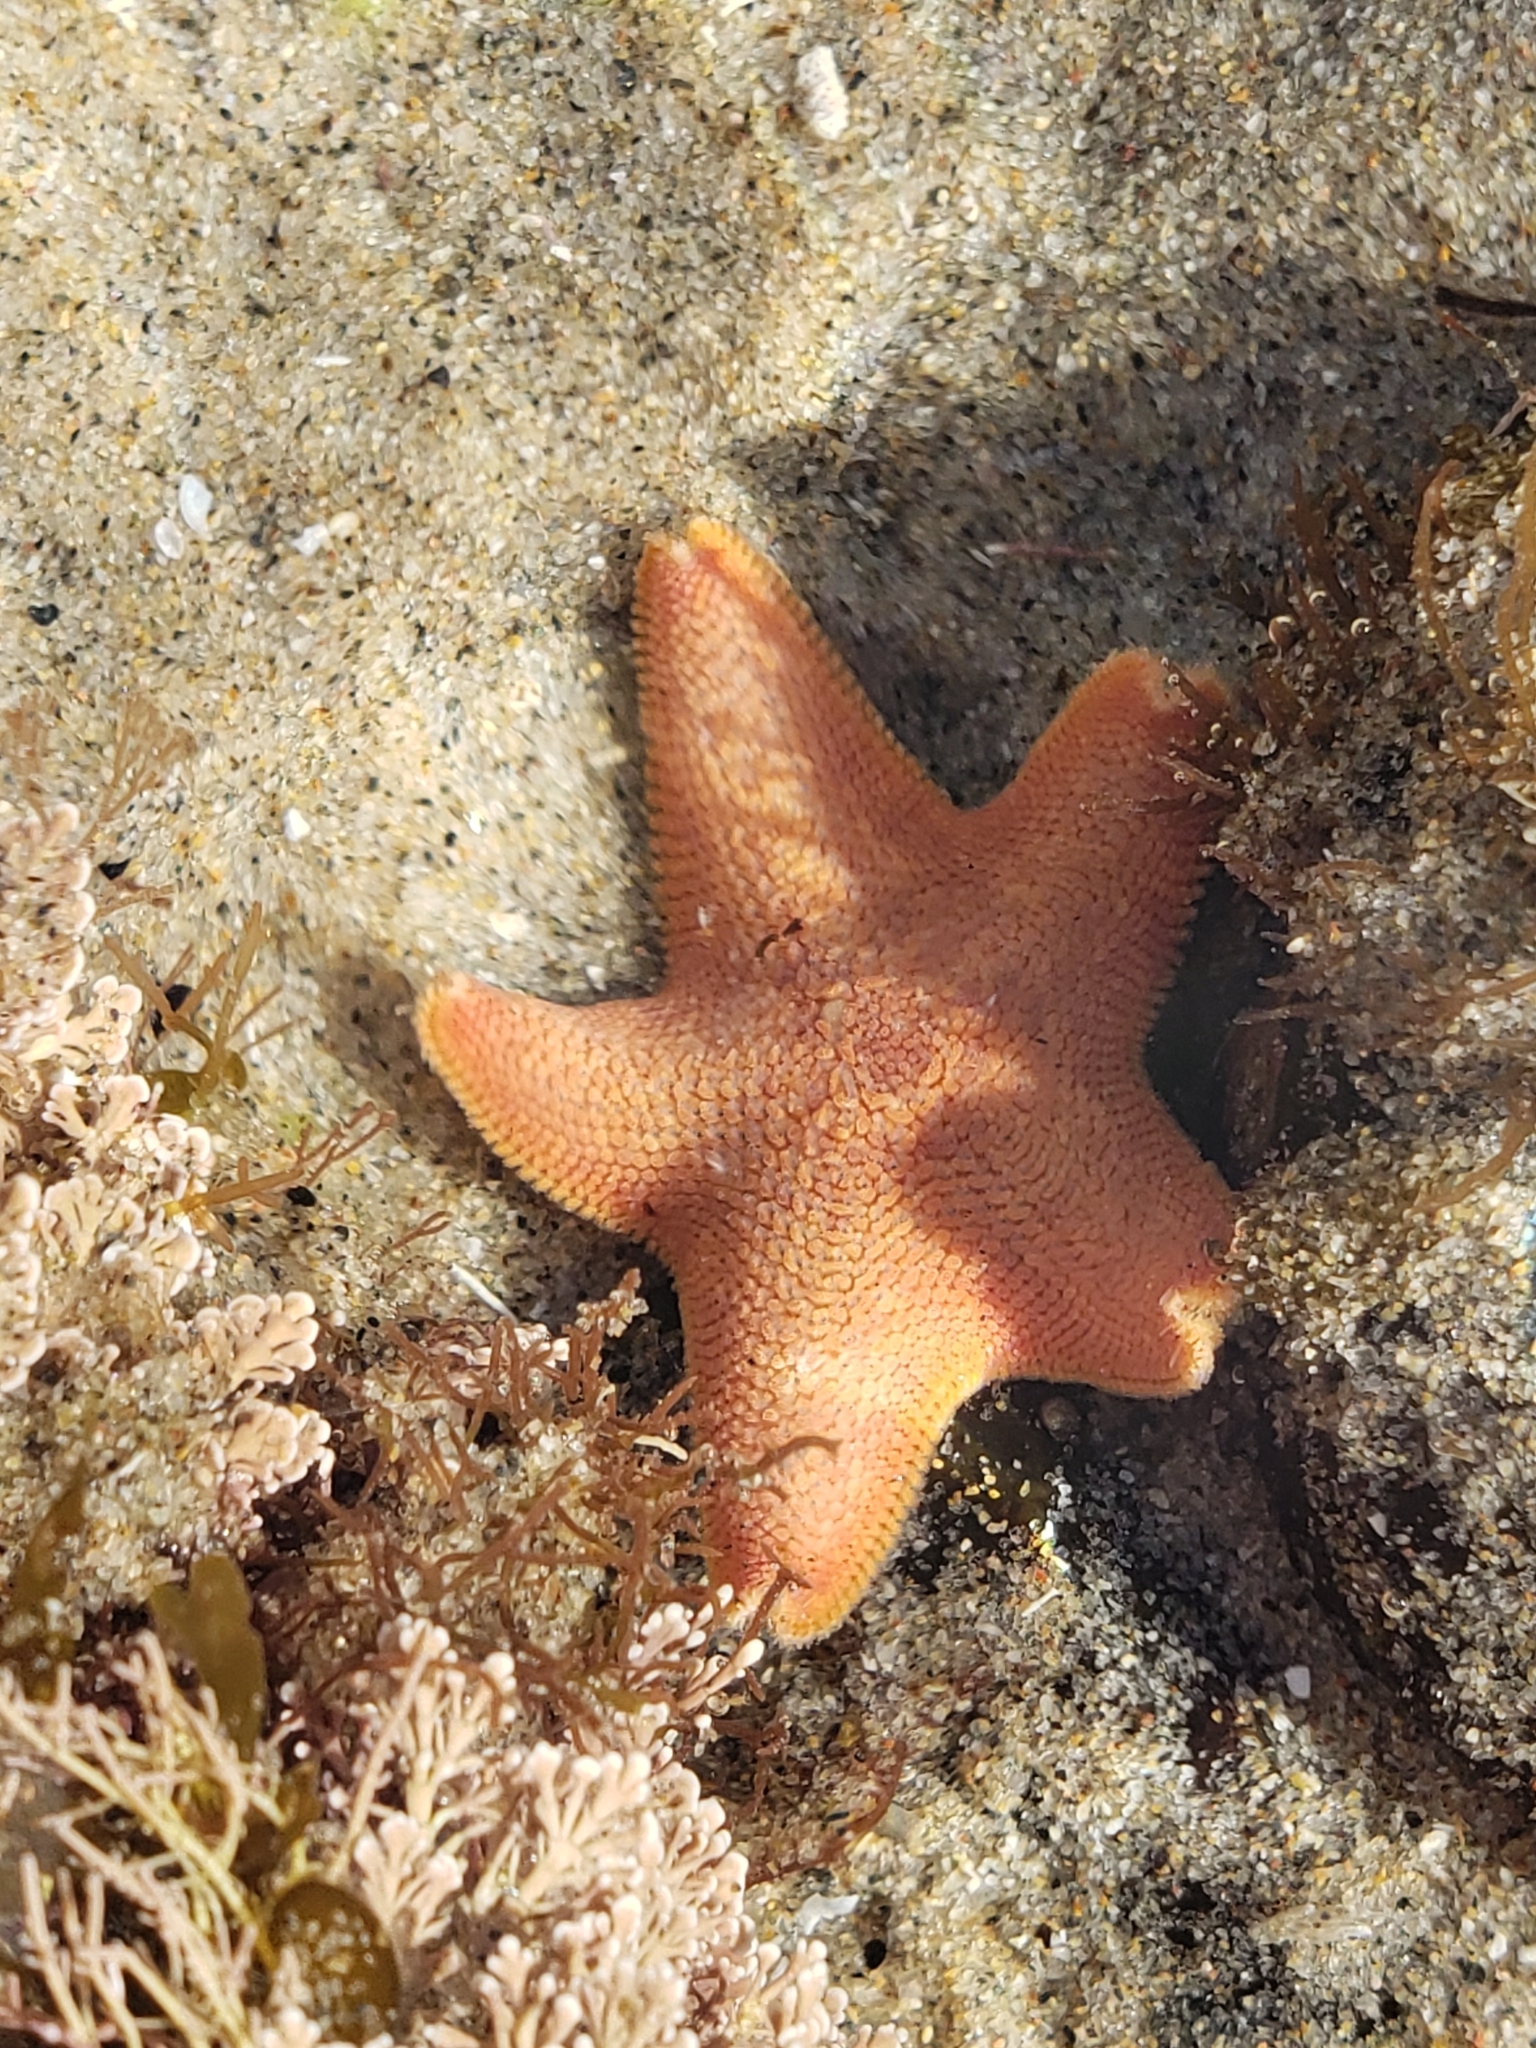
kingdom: Animalia
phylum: Echinodermata
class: Asteroidea
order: Valvatida
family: Asterinidae
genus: Patiria
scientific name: Patiria miniata
